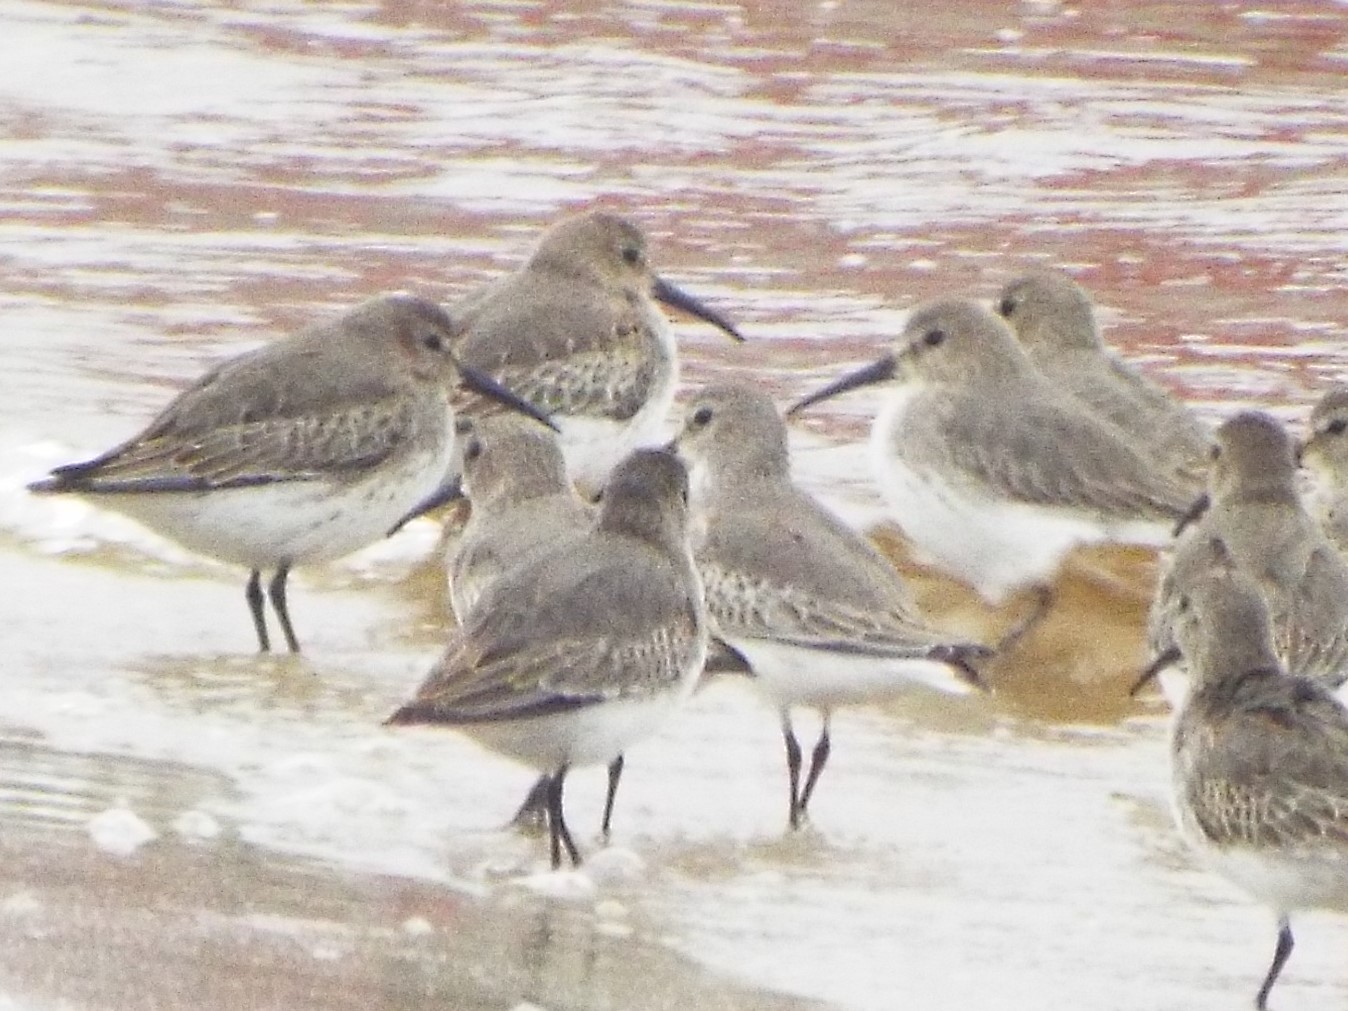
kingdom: Animalia
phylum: Chordata
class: Aves
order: Charadriiformes
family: Scolopacidae
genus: Calidris
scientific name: Calidris alpina
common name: Dunlin
